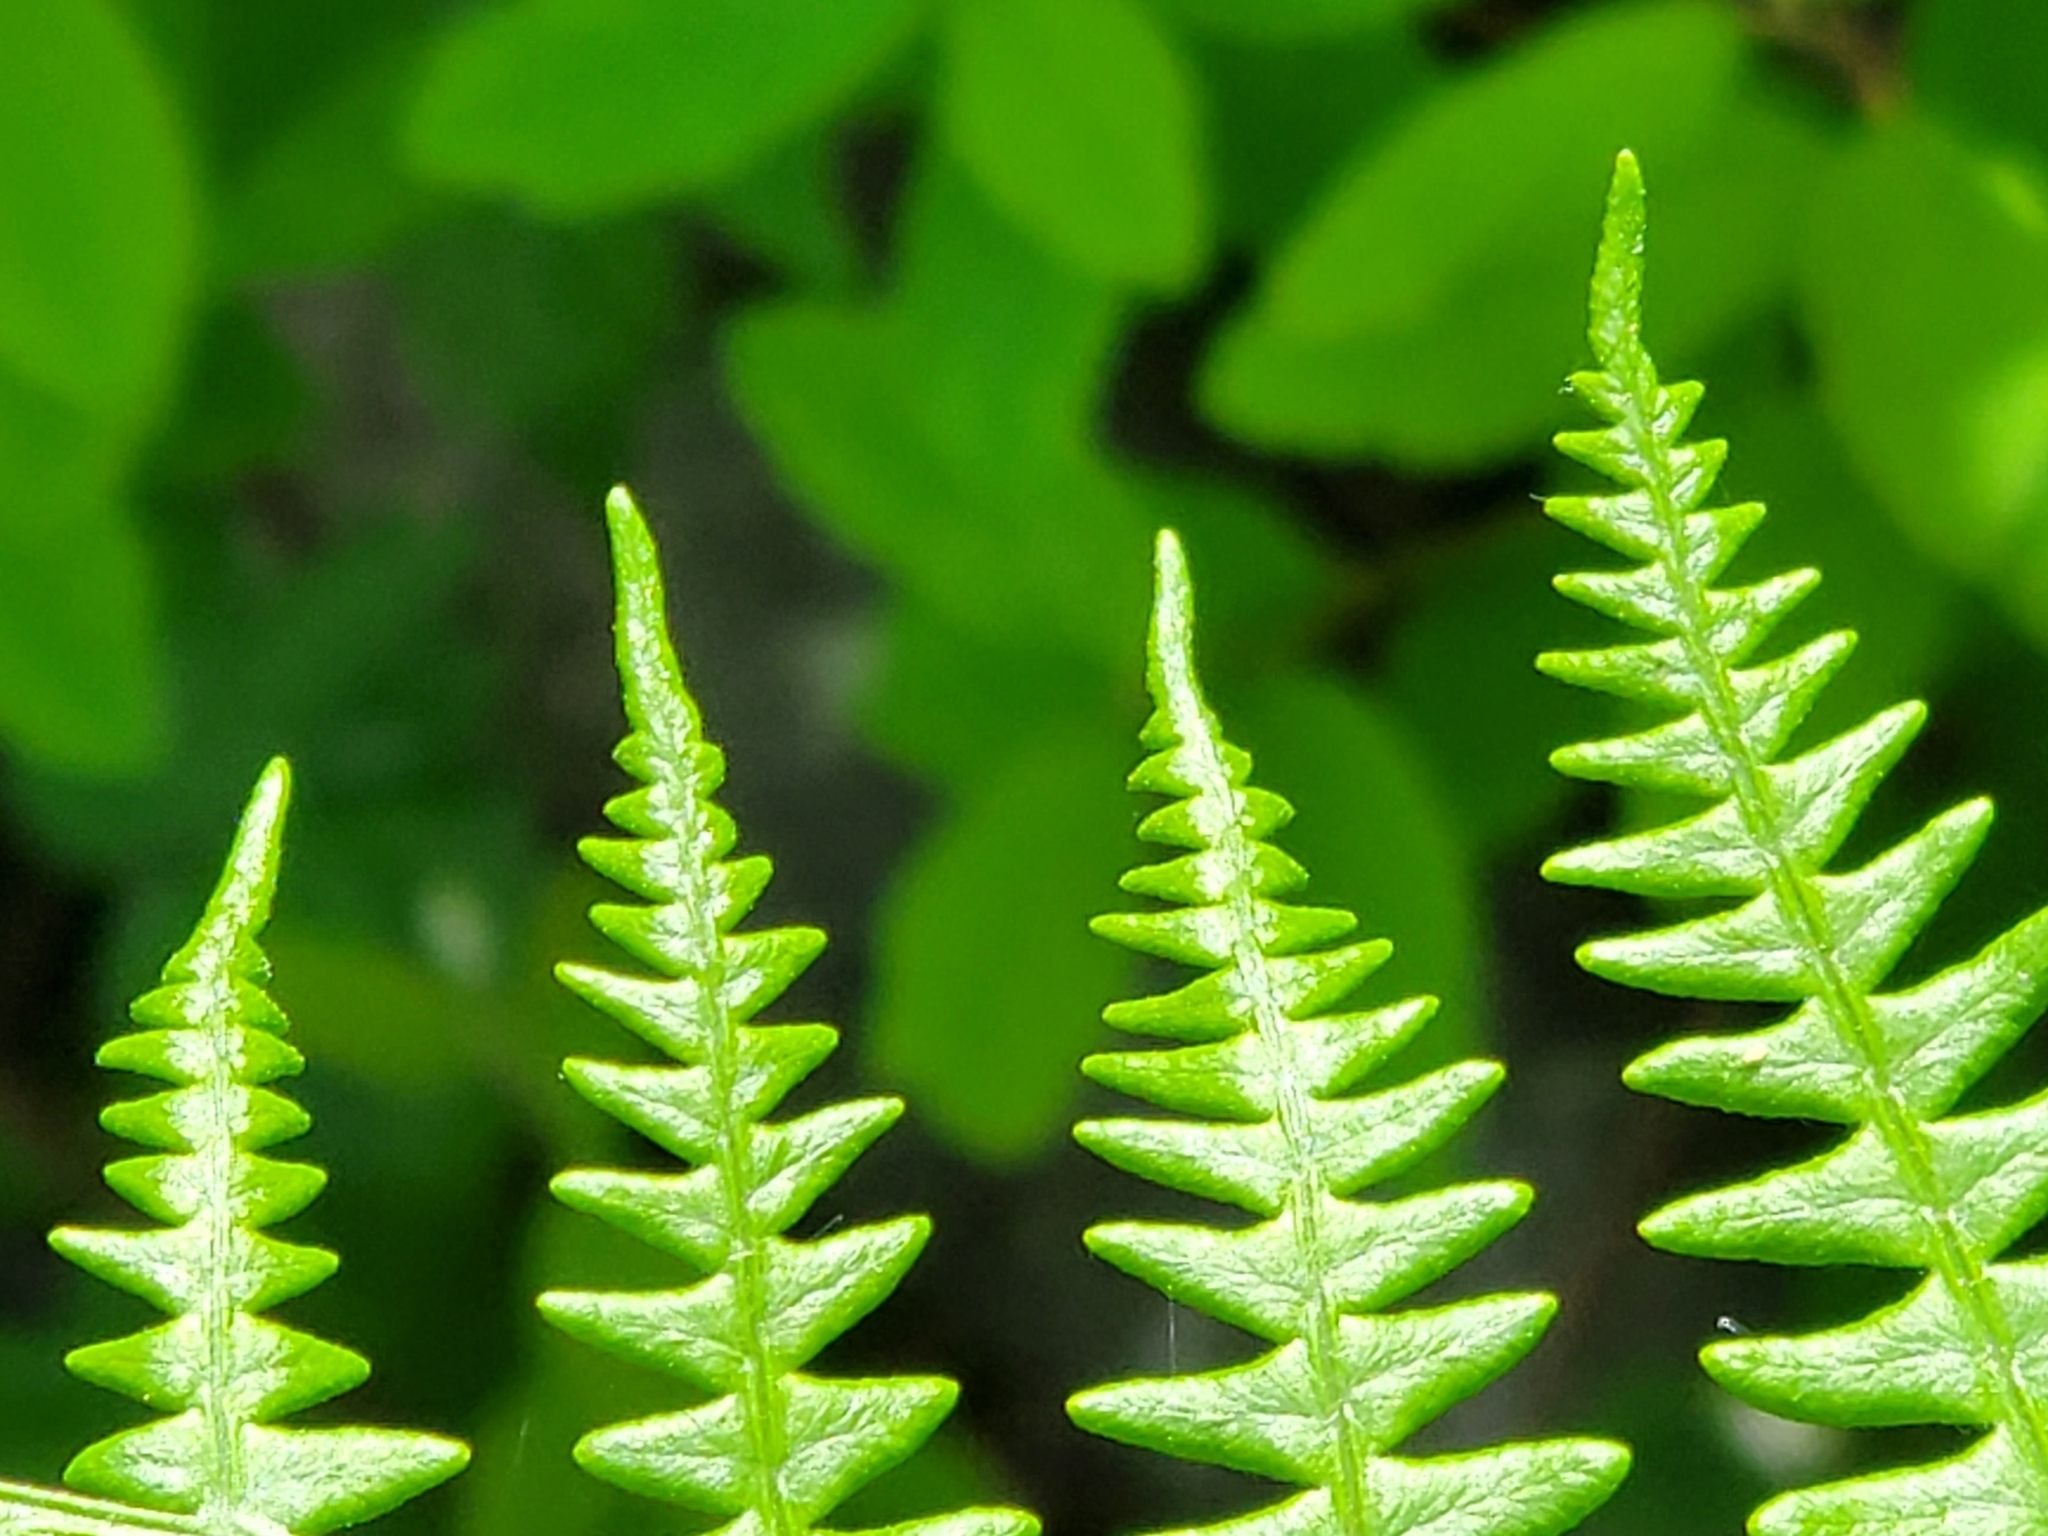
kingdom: Plantae
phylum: Tracheophyta
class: Polypodiopsida
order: Polypodiales
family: Dennstaedtiaceae
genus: Pteridium
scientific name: Pteridium aquilinum
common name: Bracken
